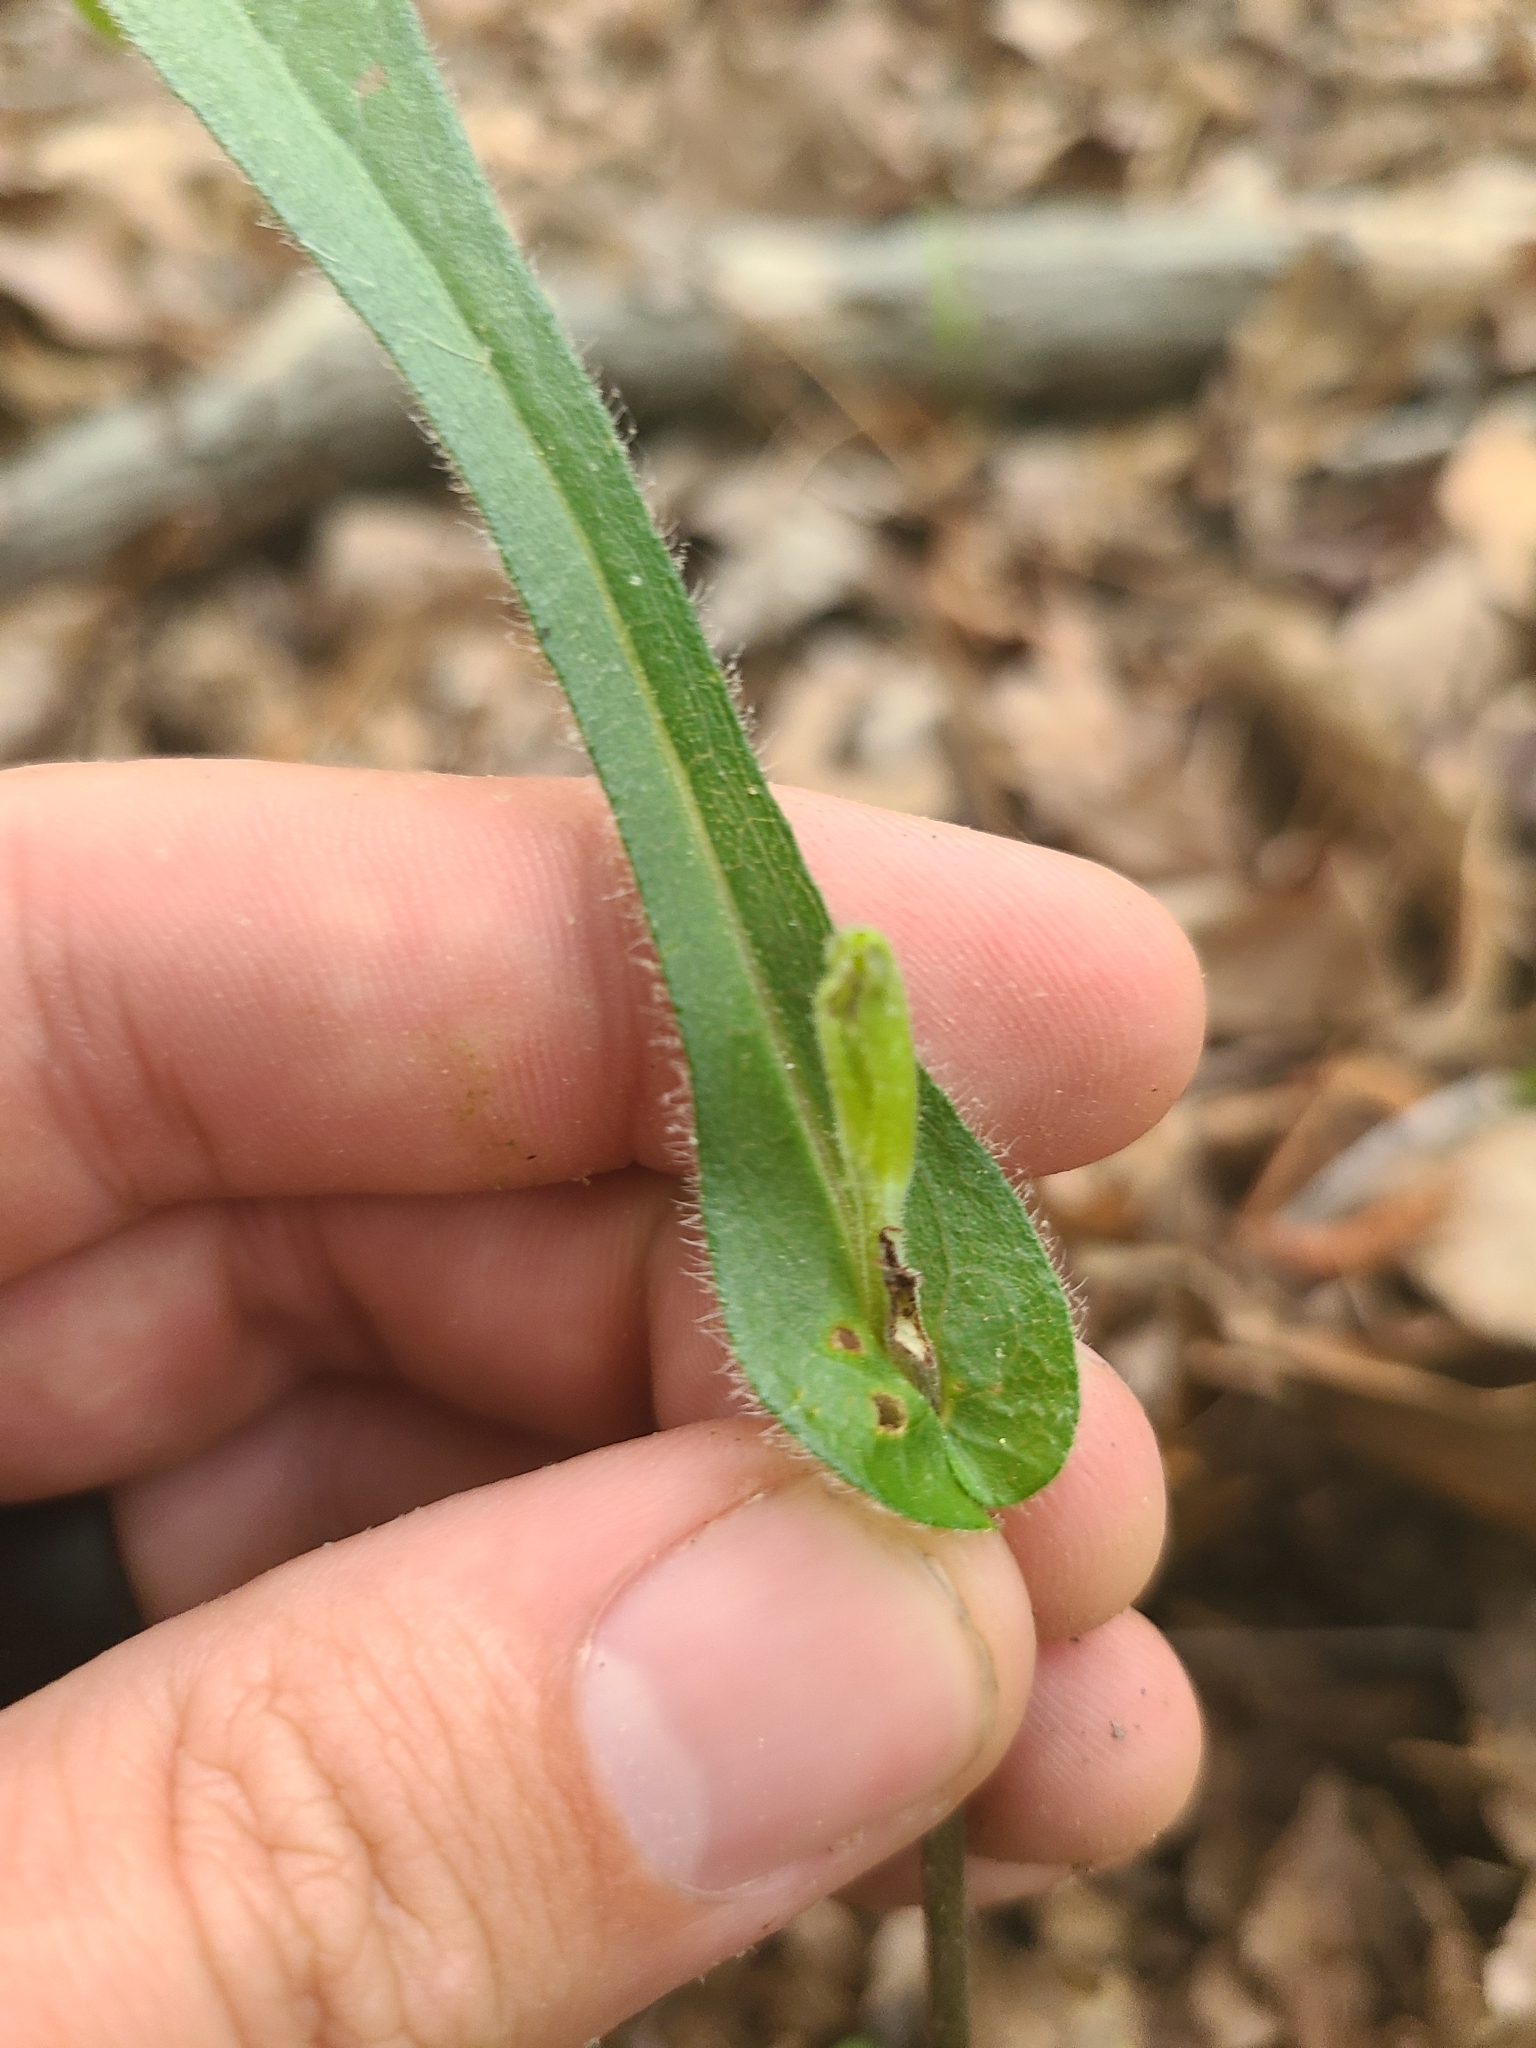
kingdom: Plantae
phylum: Tracheophyta
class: Magnoliopsida
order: Asterales
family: Asteraceae
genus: Rudbeckia
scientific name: Rudbeckia hirta
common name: Black-eyed-susan
